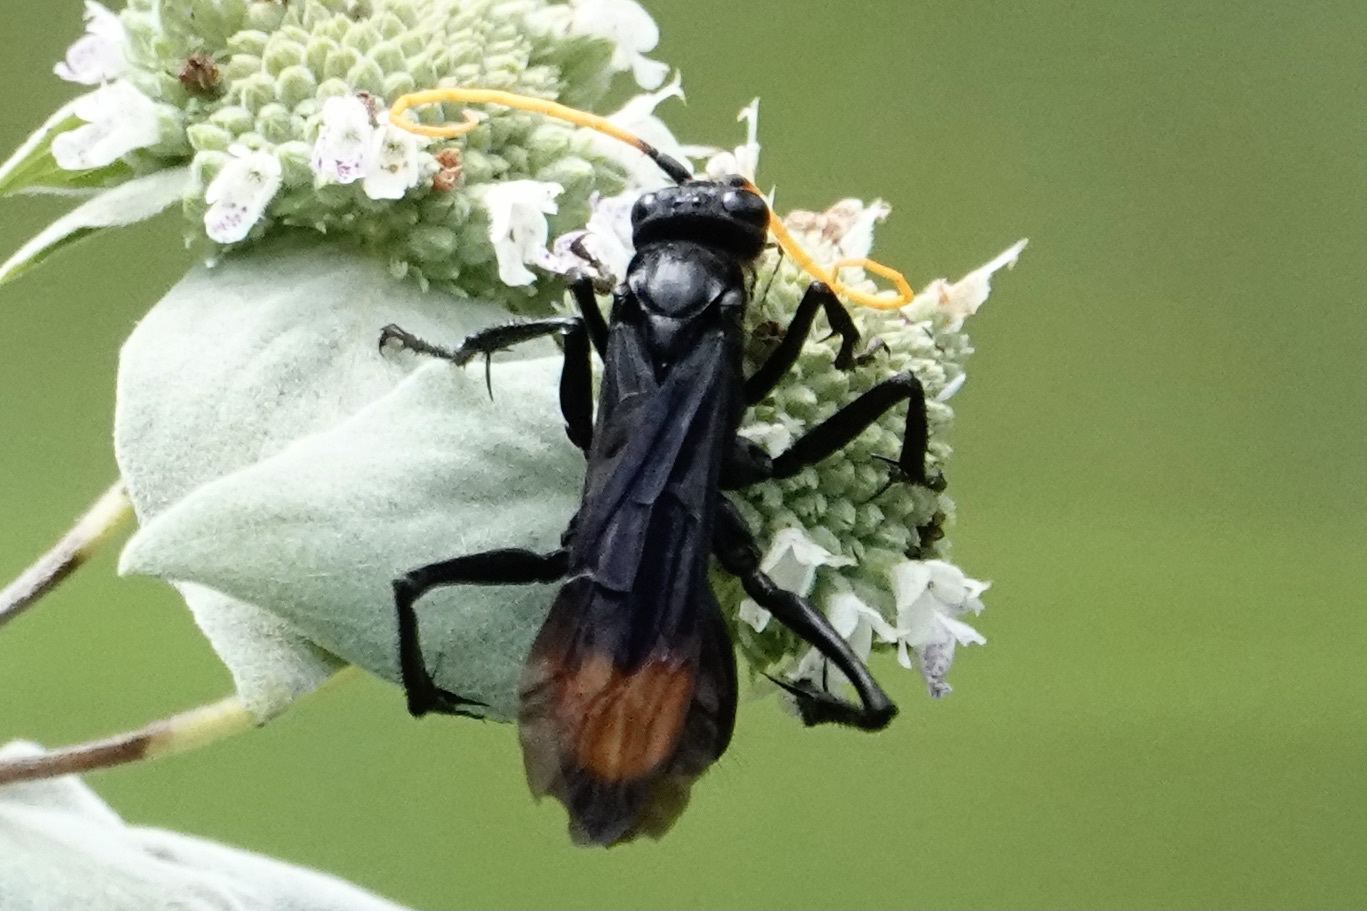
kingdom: Animalia
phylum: Arthropoda
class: Insecta
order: Hymenoptera
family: Pompilidae
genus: Entypus
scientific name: Entypus unifasciatus
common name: Eastern tawny-horned spider wasp
